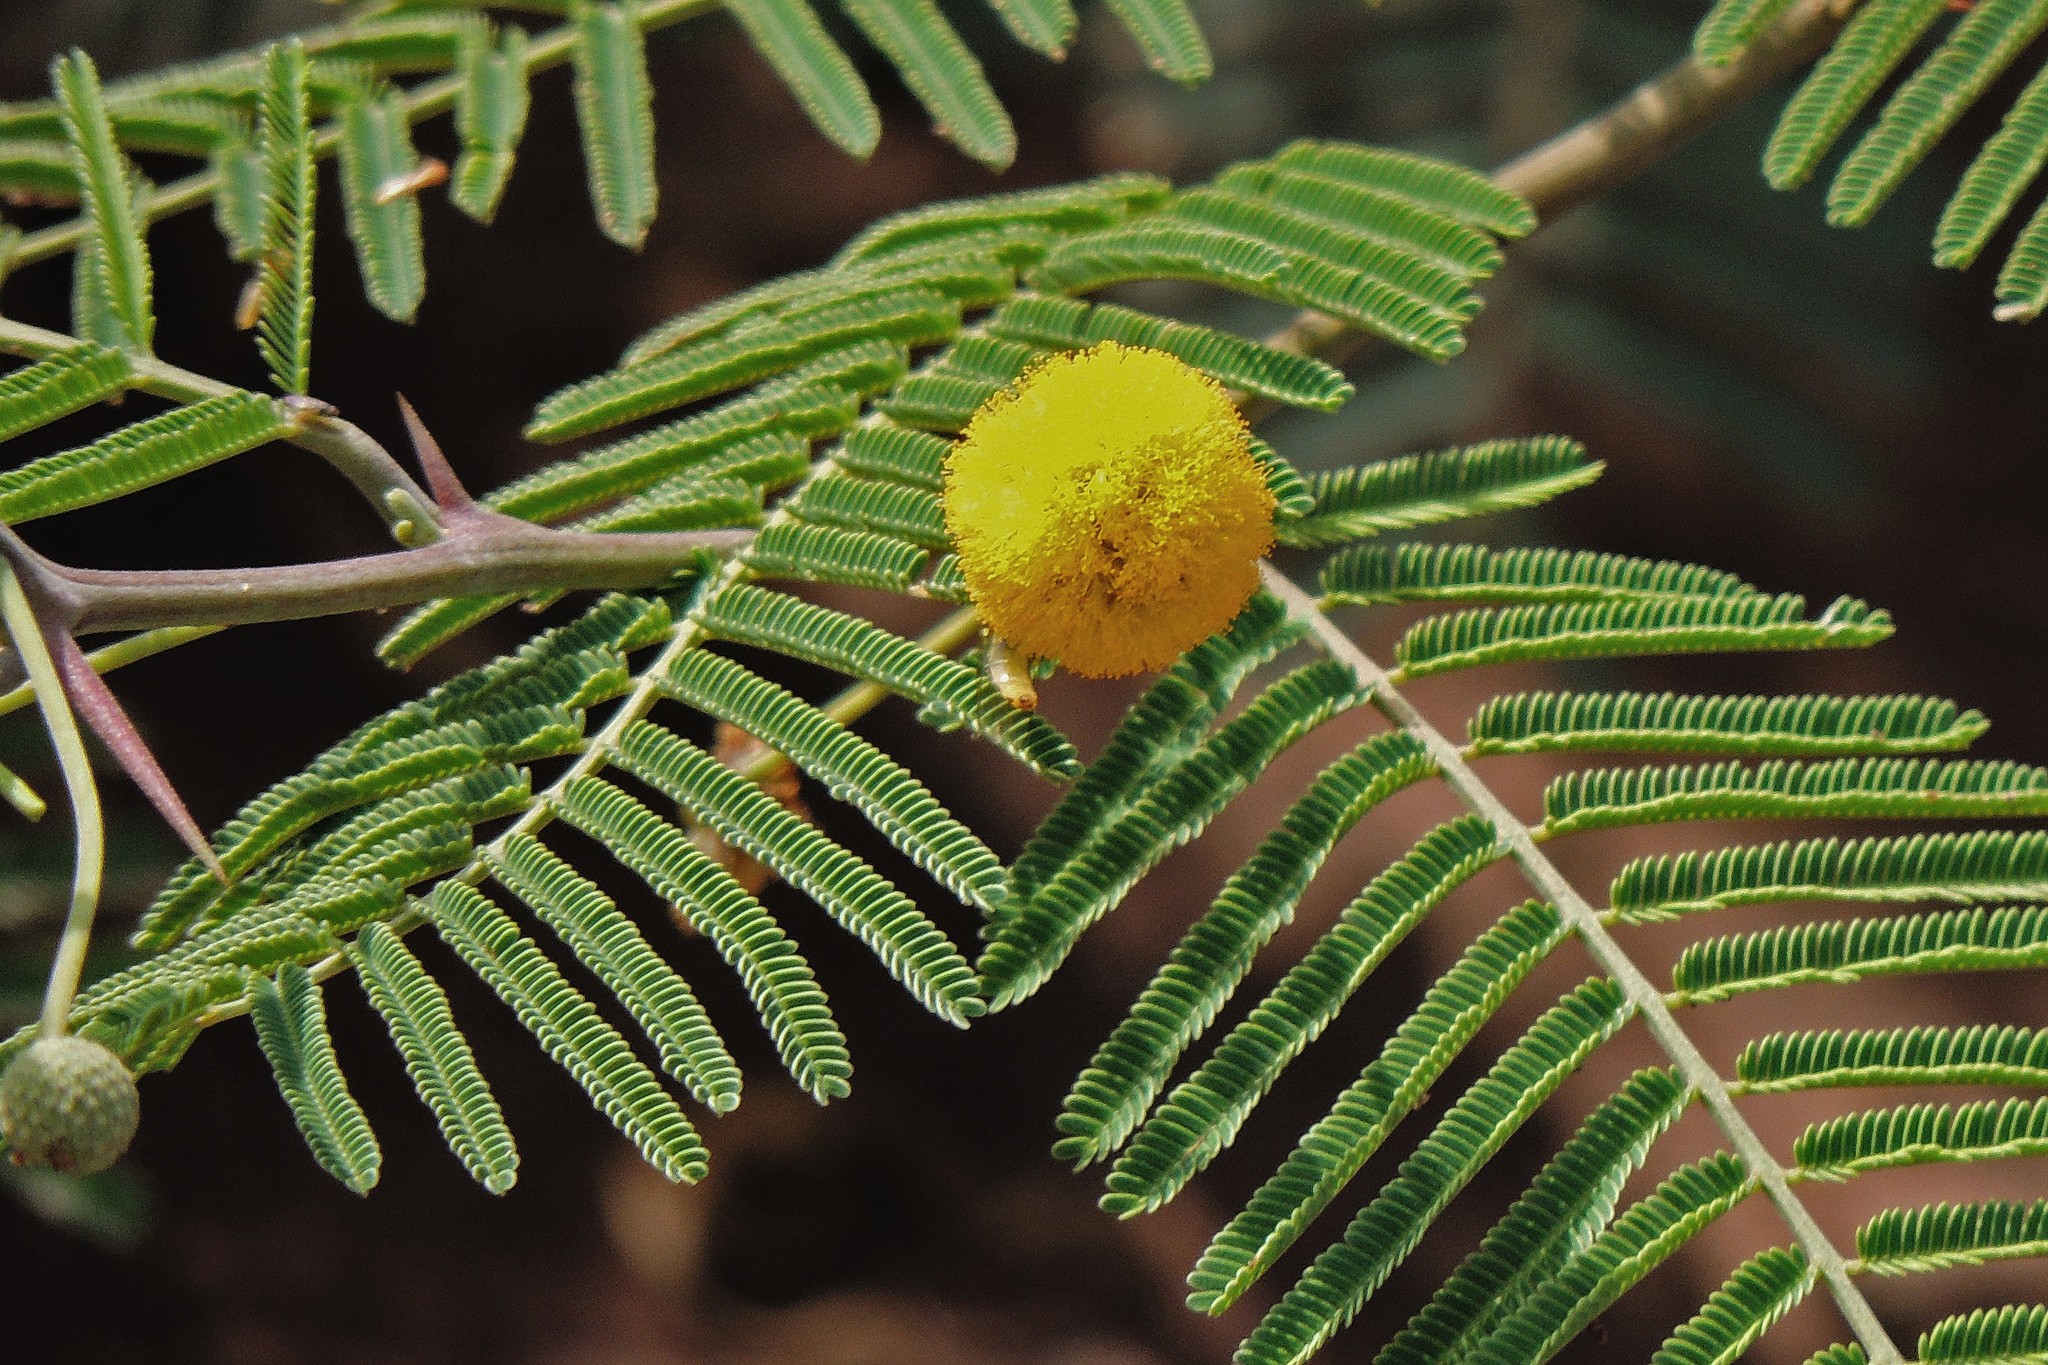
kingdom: Plantae
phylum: Tracheophyta
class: Magnoliopsida
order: Fabales
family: Fabaceae
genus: Vachellia
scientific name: Vachellia aroma
